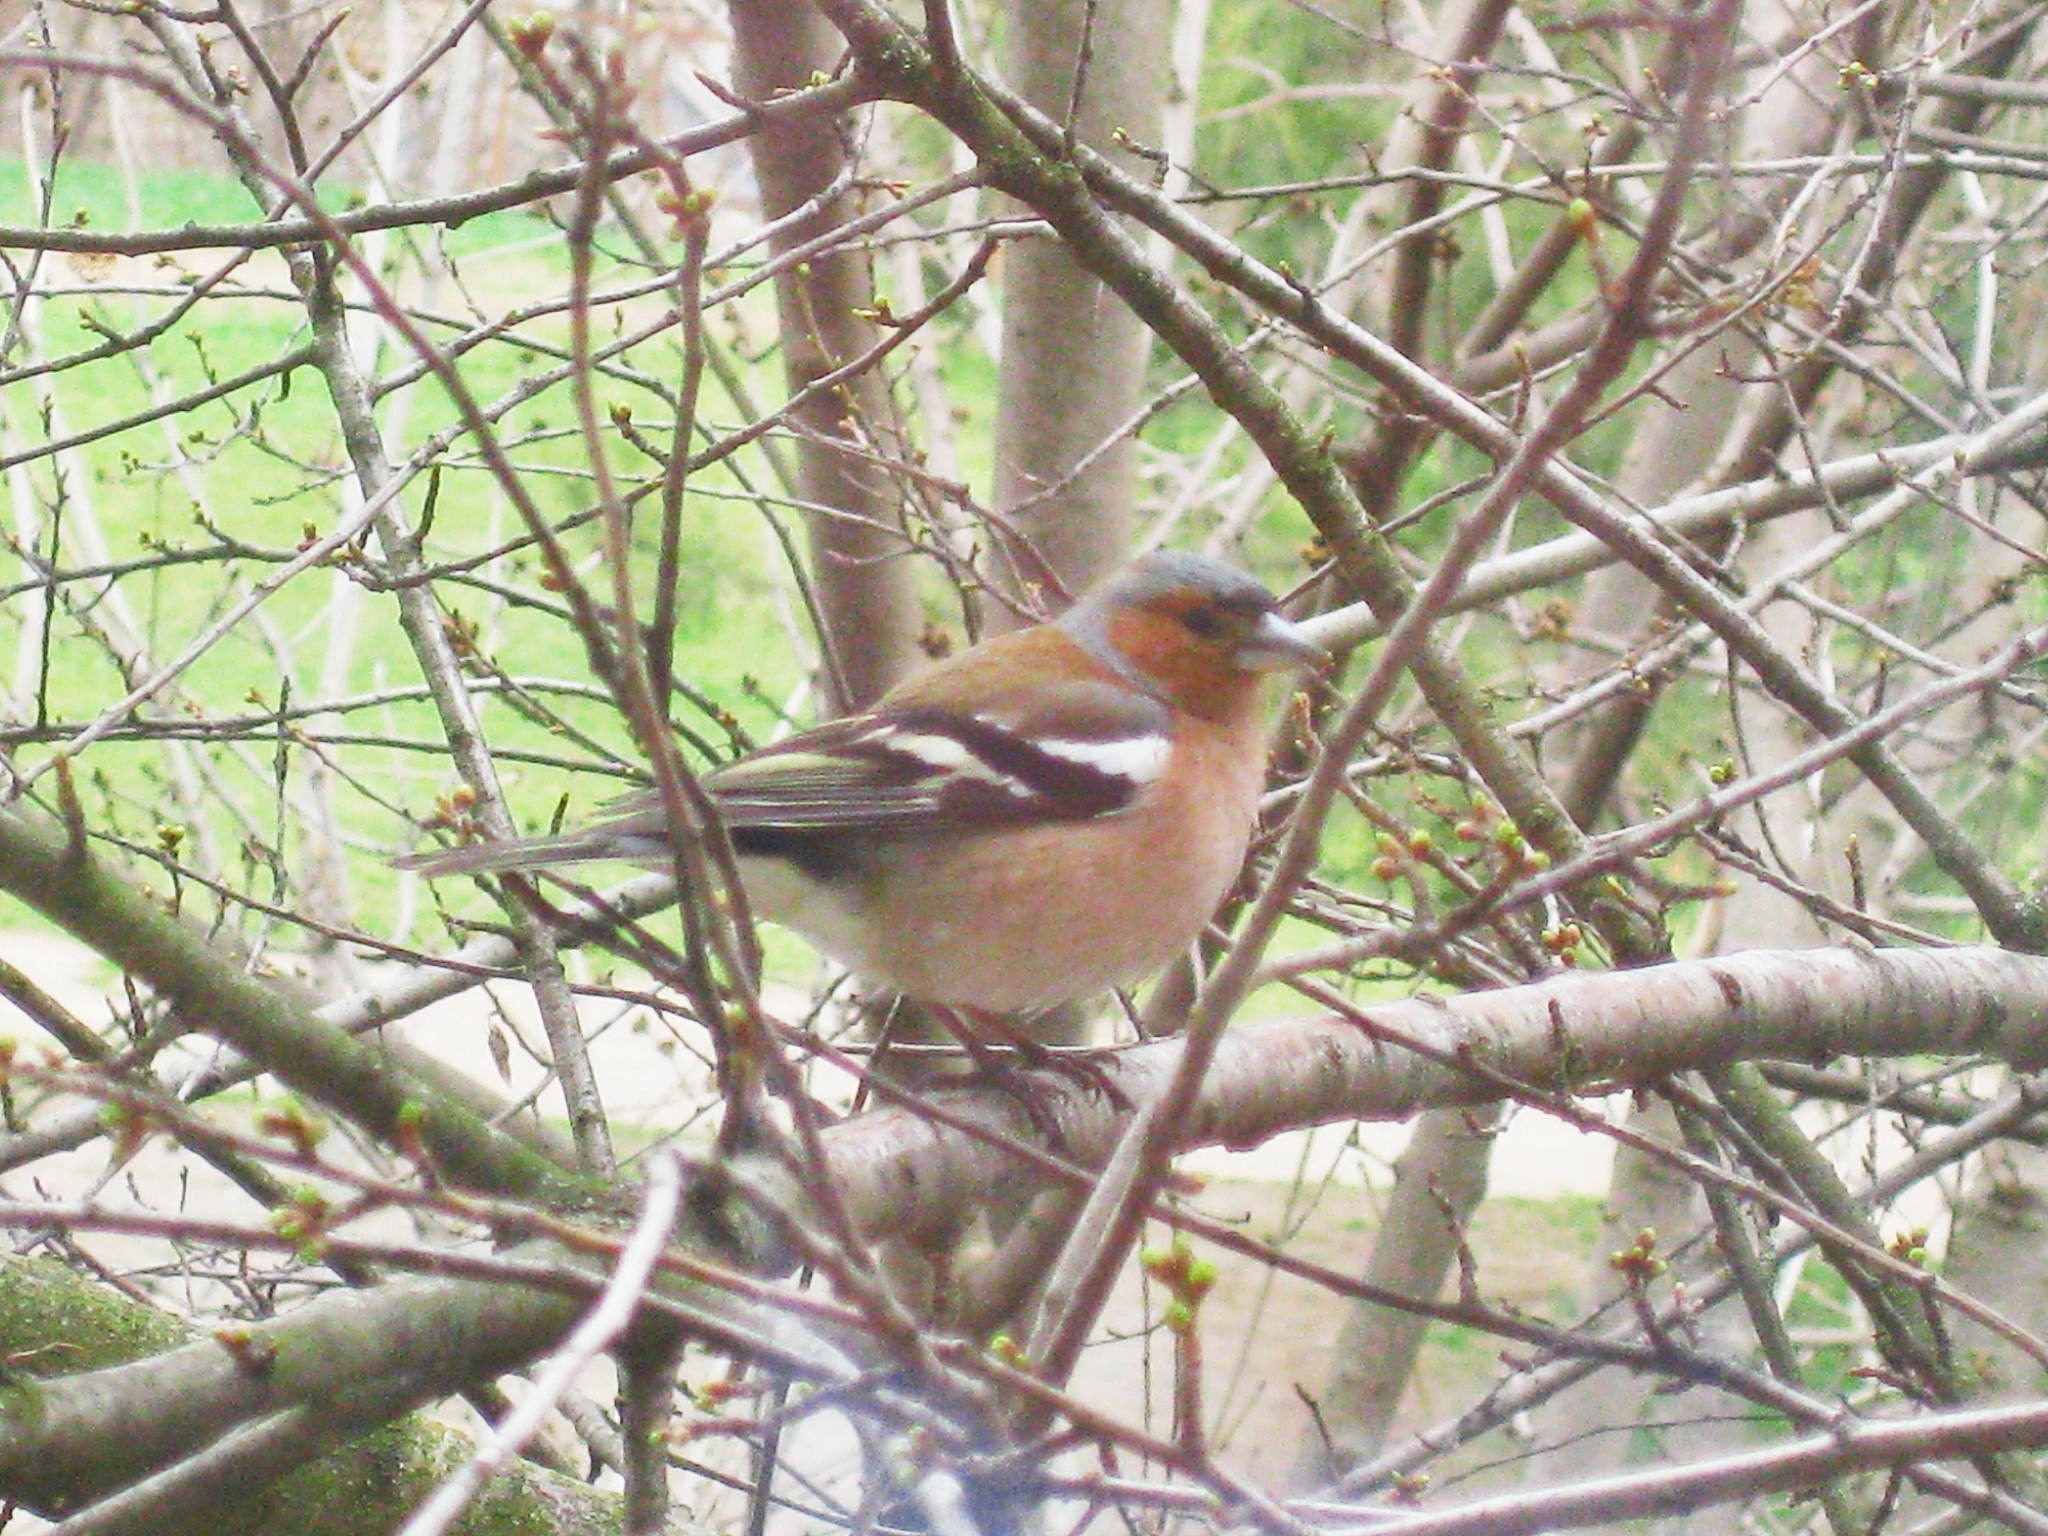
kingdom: Animalia
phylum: Chordata
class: Aves
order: Passeriformes
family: Fringillidae
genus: Fringilla
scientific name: Fringilla coelebs
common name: Common chaffinch
